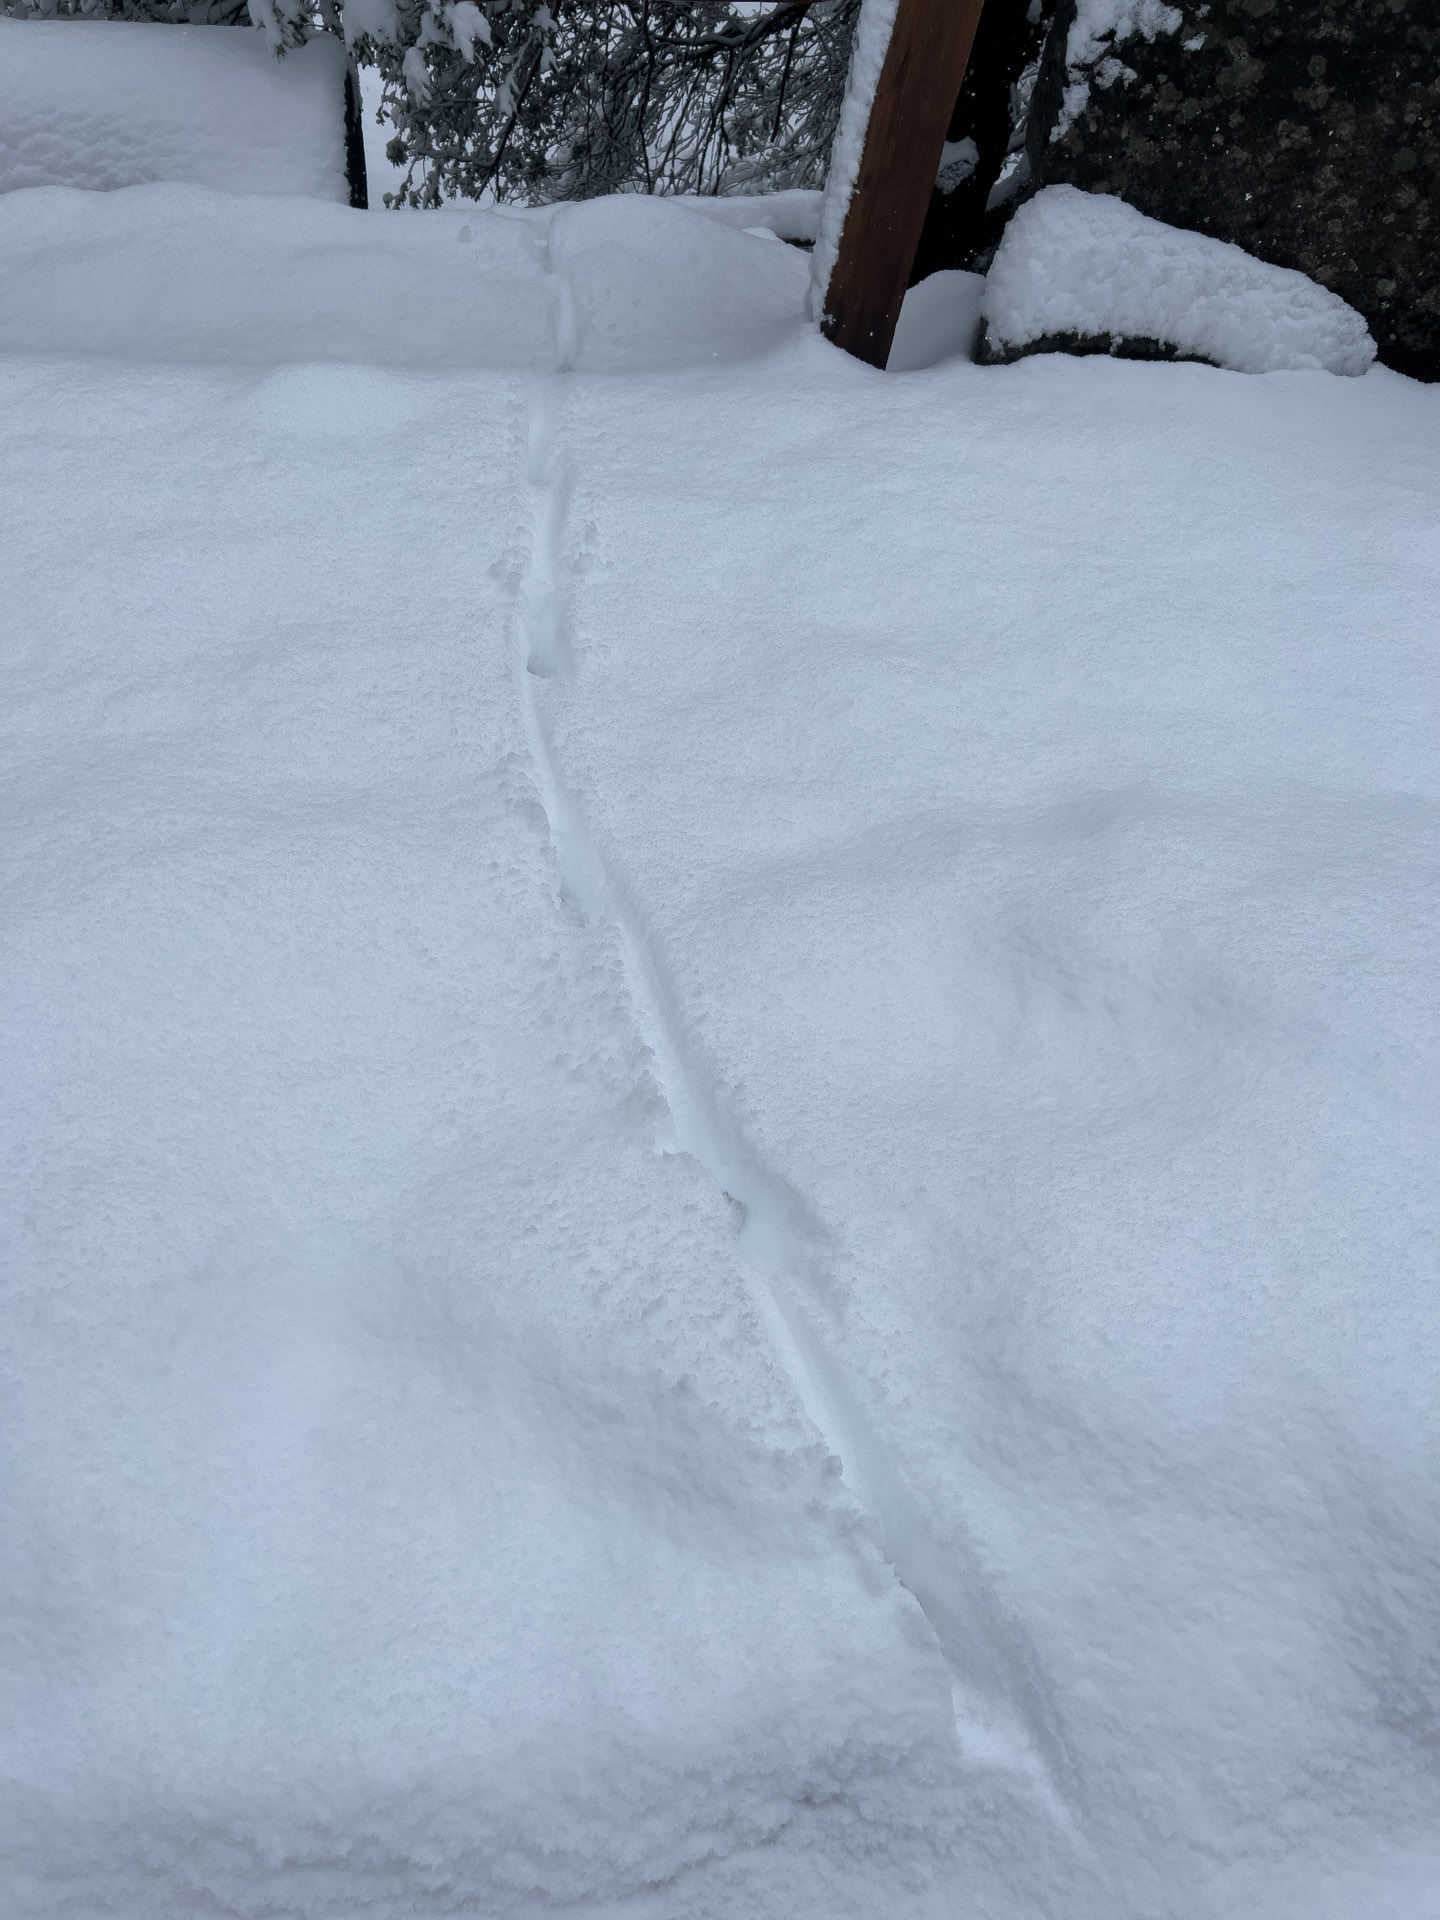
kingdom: Animalia
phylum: Chordata
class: Mammalia
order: Carnivora
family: Canidae
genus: Canis
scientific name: Canis latrans
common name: Coyote
